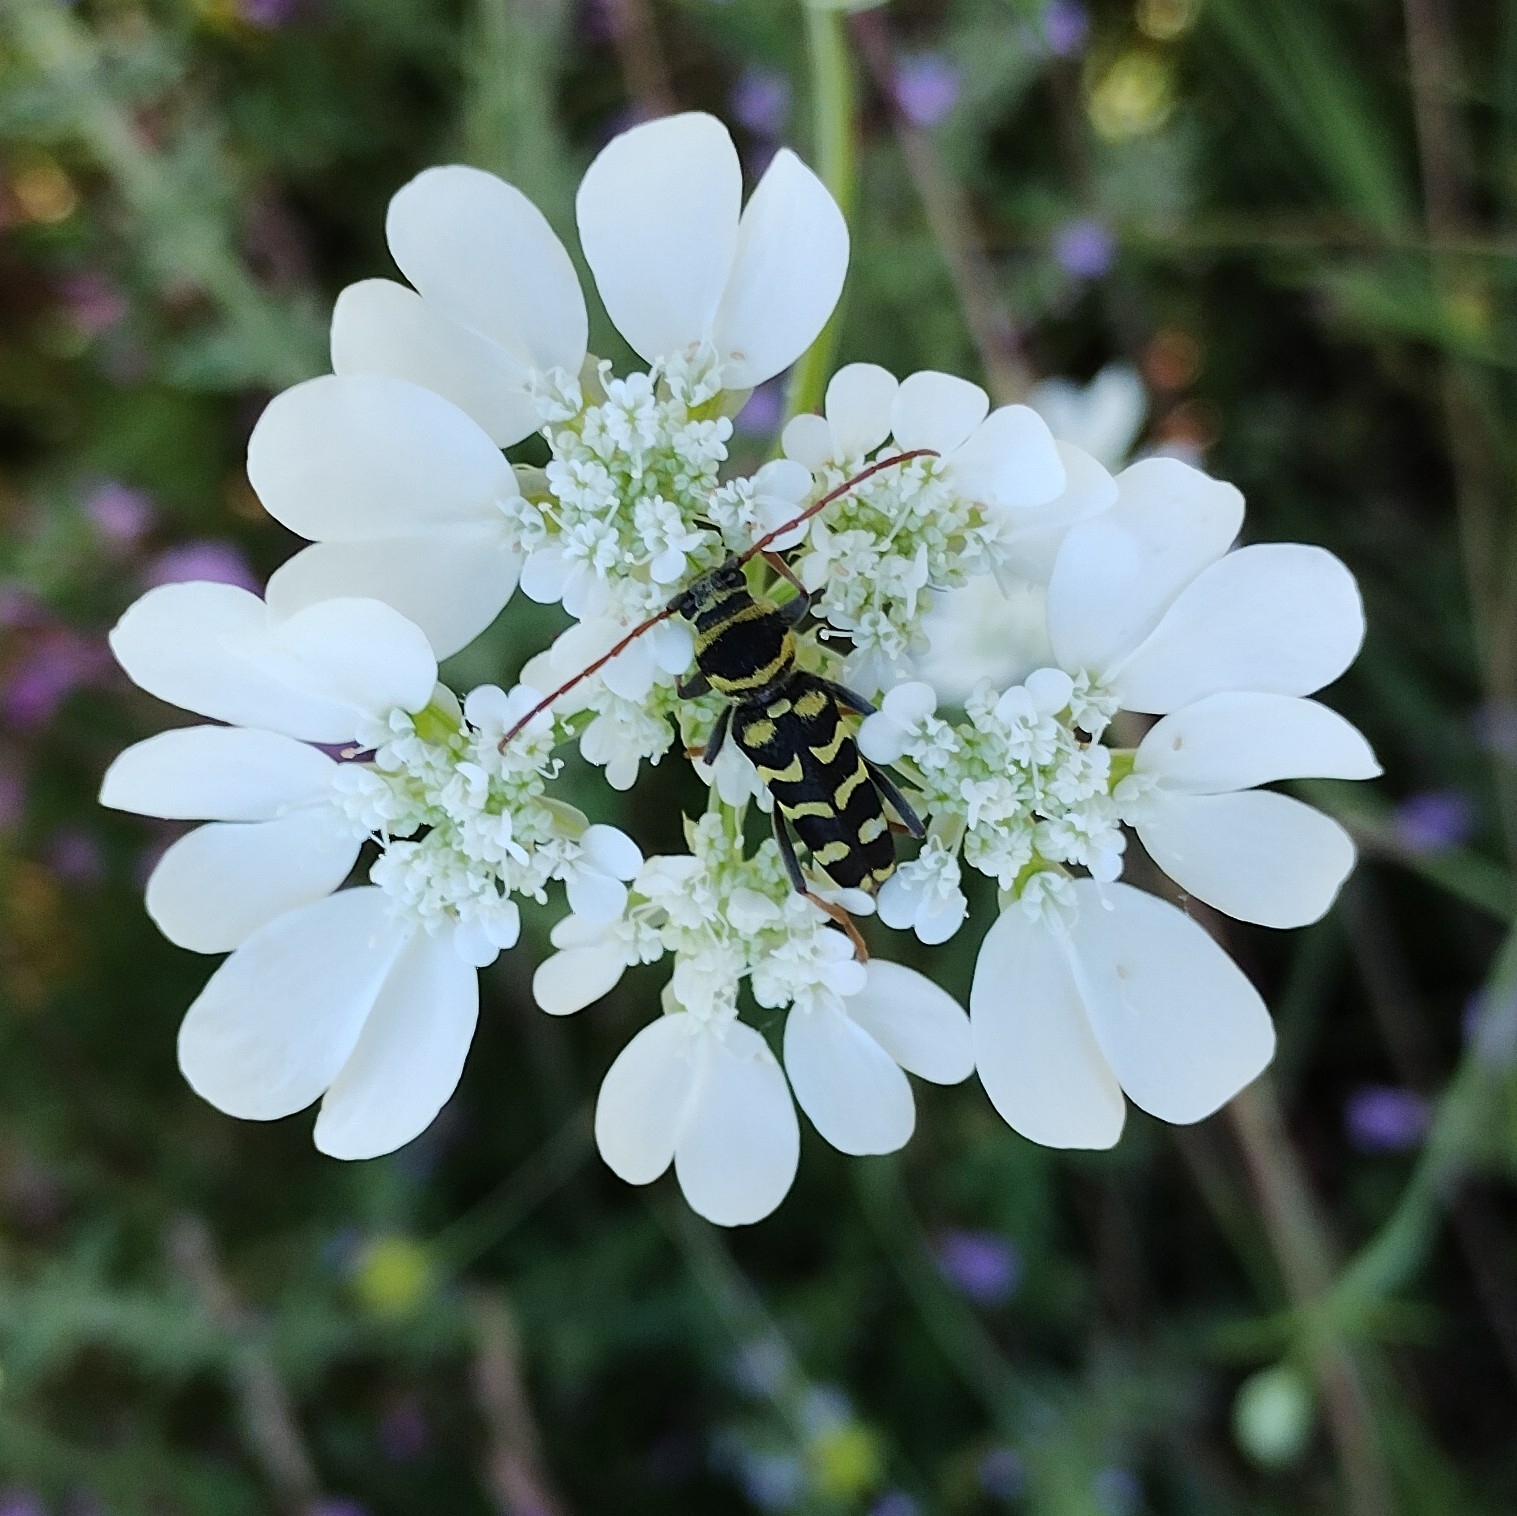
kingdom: Animalia
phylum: Arthropoda
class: Insecta
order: Coleoptera
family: Cerambycidae
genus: Plagionotus
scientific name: Plagionotus floralis
